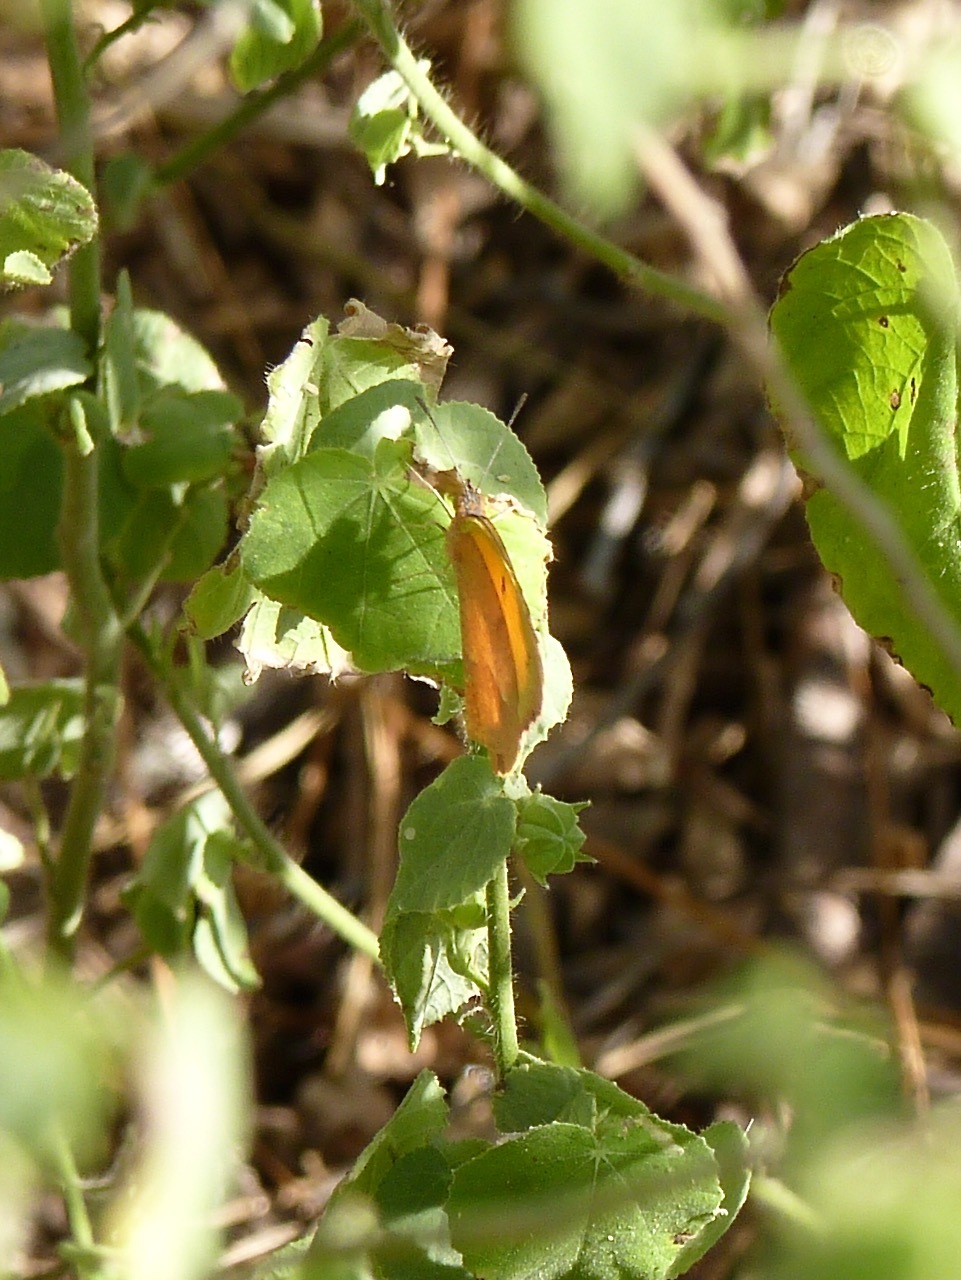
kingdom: Animalia
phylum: Arthropoda
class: Insecta
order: Lepidoptera
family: Pieridae
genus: Abaeis
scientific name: Abaeis nicippe
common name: Sleepy orange
